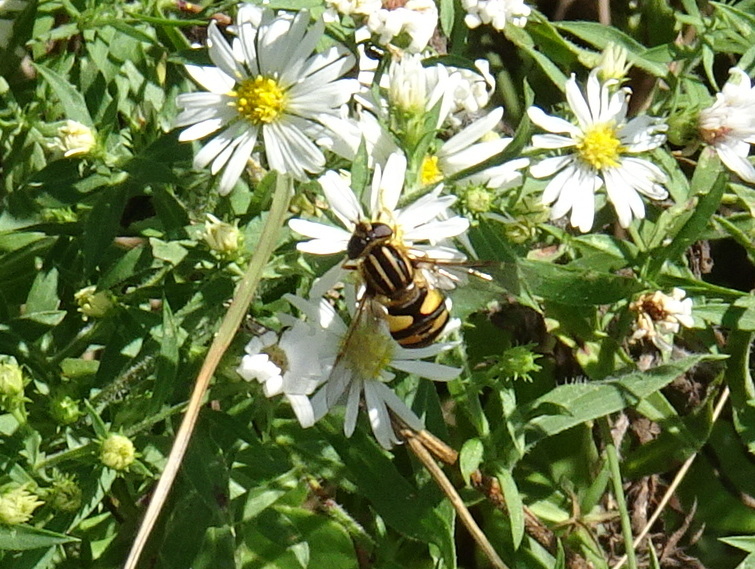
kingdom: Animalia
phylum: Arthropoda
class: Insecta
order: Diptera
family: Syrphidae
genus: Helophilus
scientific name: Helophilus fasciatus
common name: Narrow-headed marsh fly
